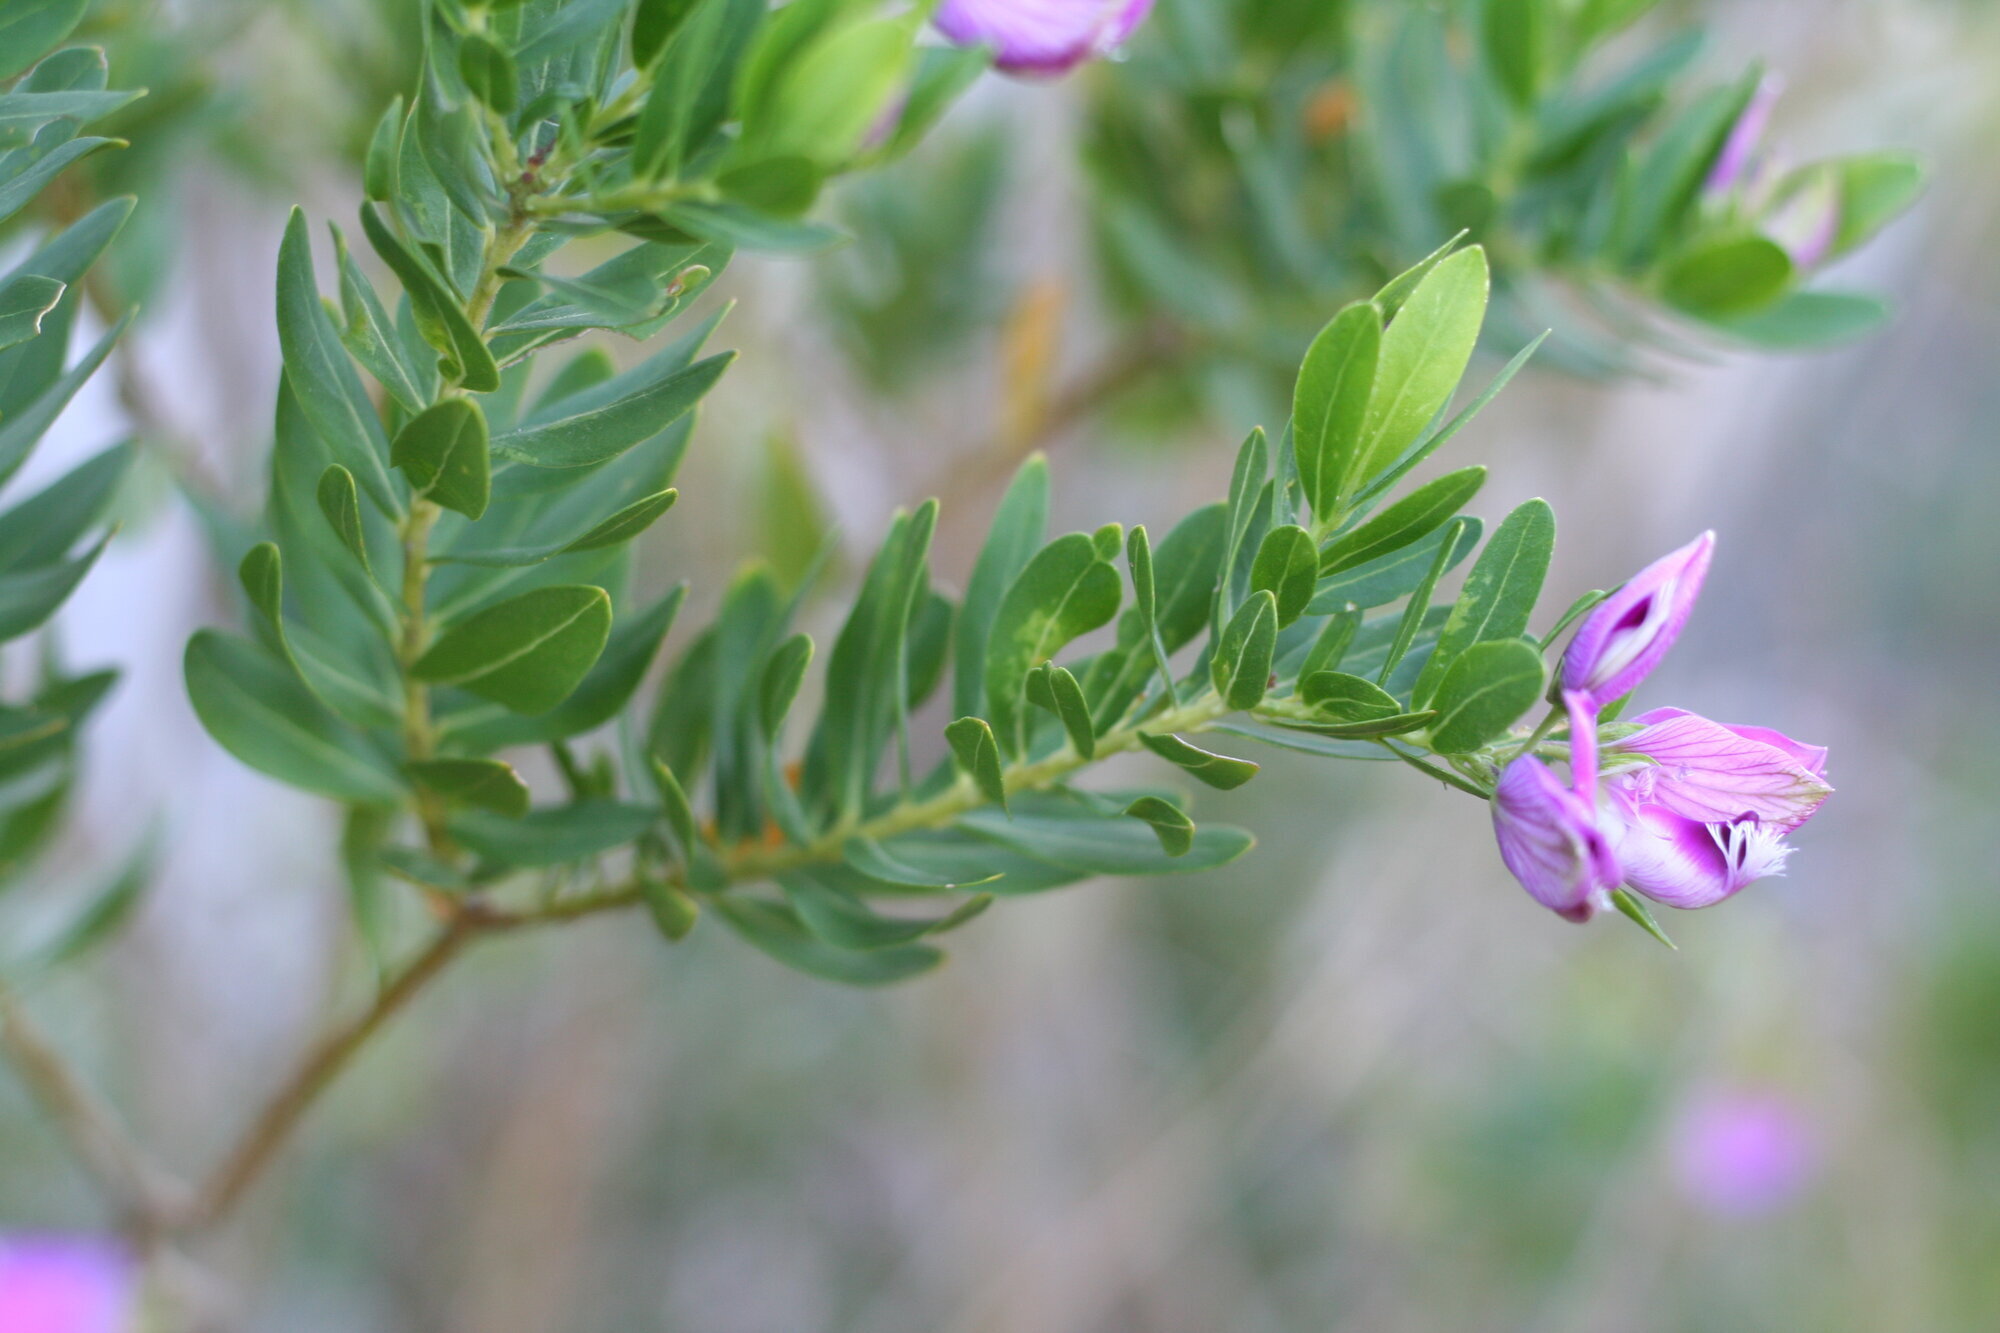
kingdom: Plantae
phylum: Tracheophyta
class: Magnoliopsida
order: Fabales
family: Polygalaceae
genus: Polygala
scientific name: Polygala myrtifolia
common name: Myrtle-leaf milkwort
